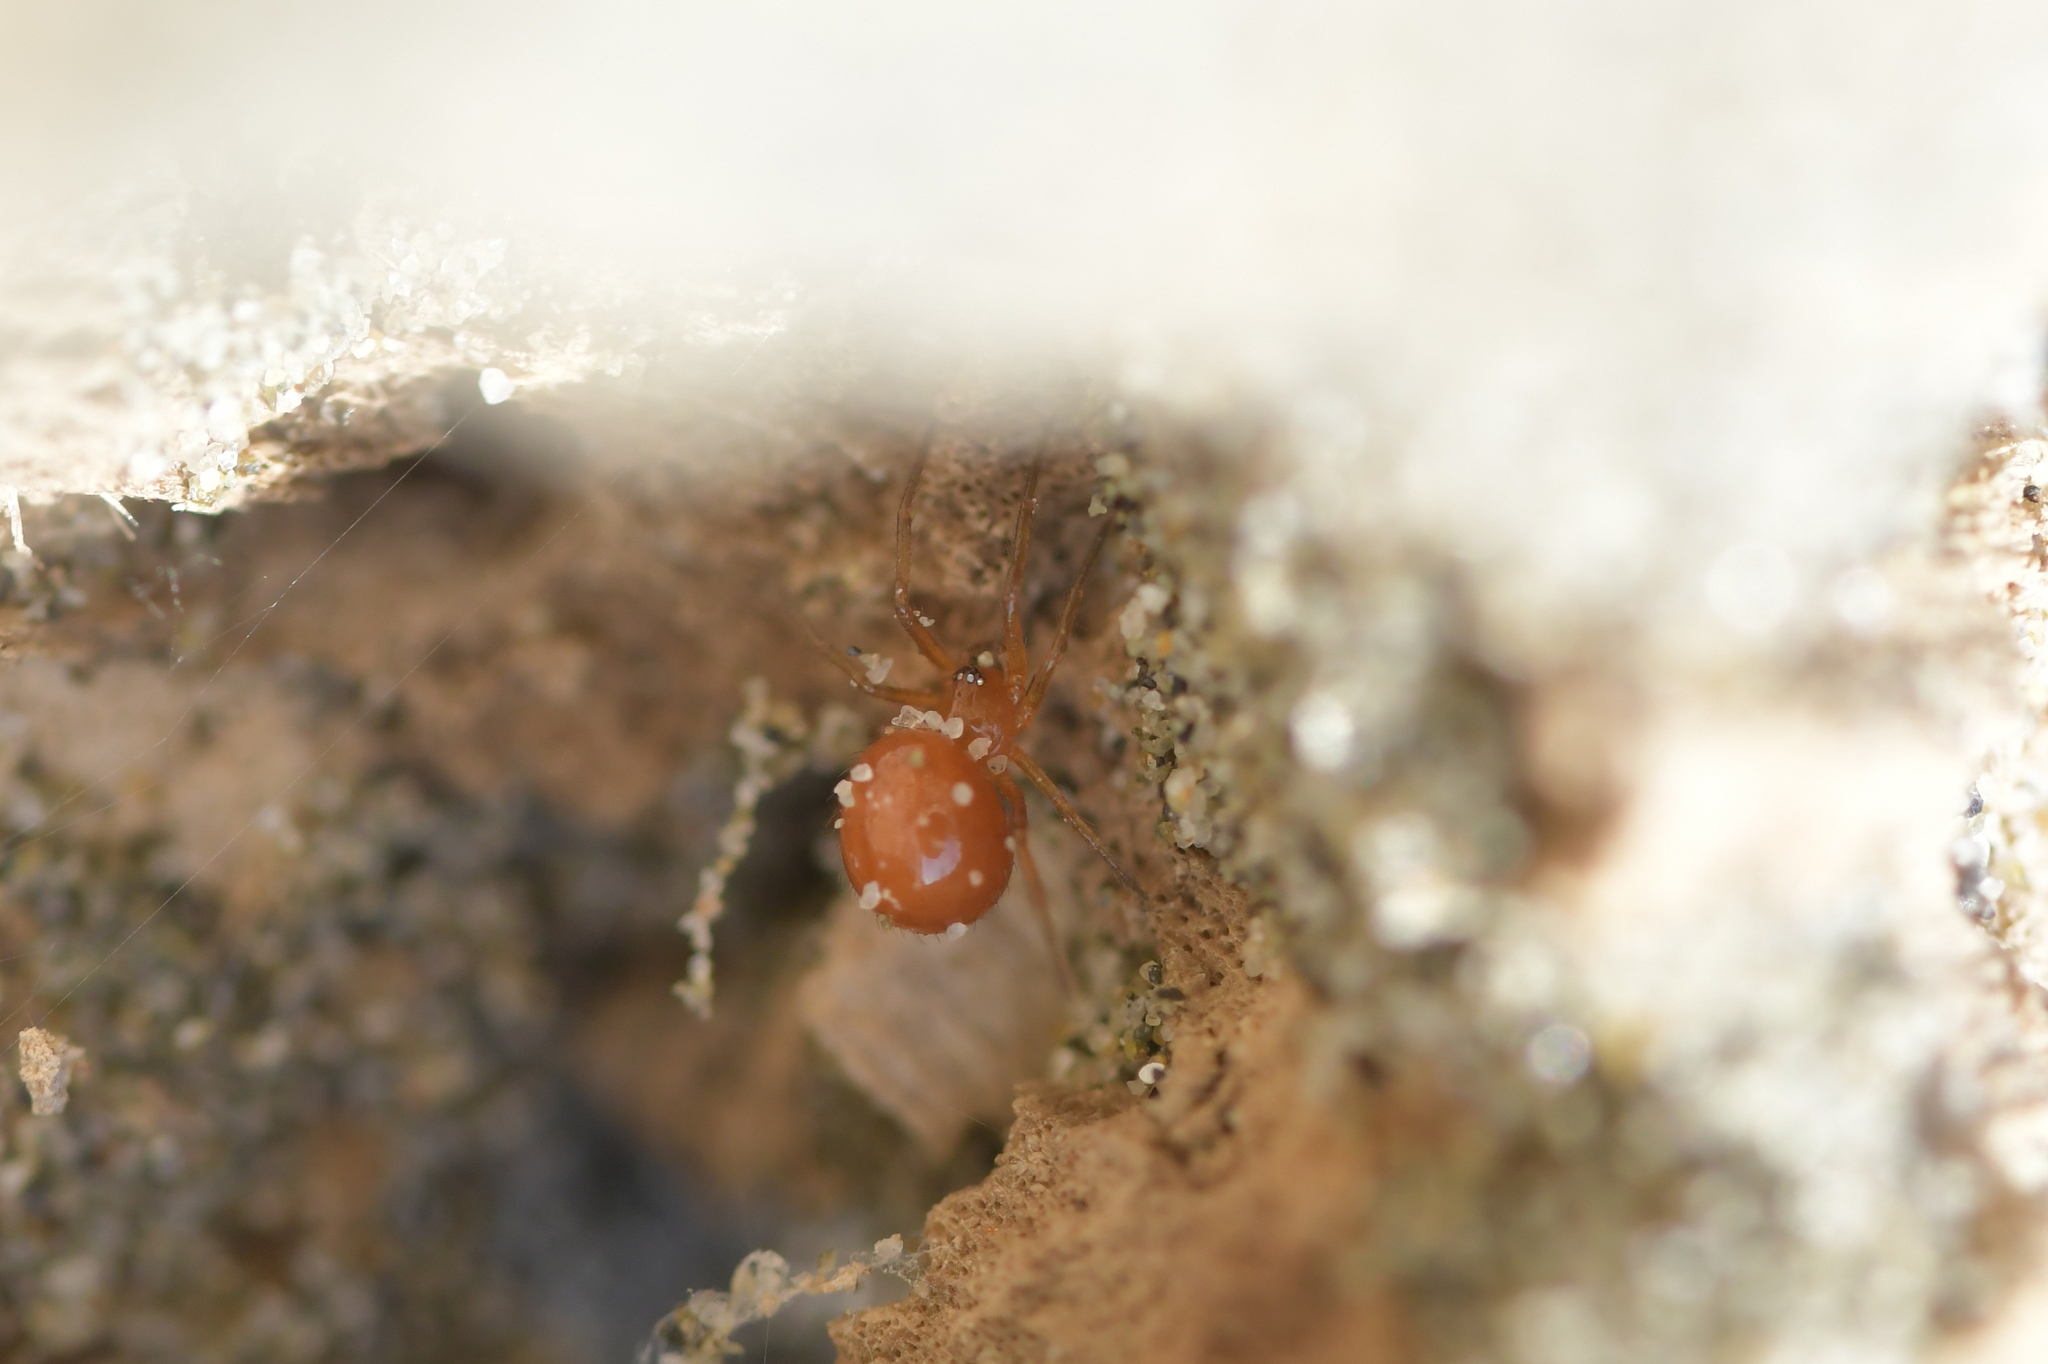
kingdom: Animalia
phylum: Arthropoda
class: Arachnida
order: Araneae
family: Theridiidae
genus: Steatoda
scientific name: Steatoda capensis
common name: Cobweb weaver
